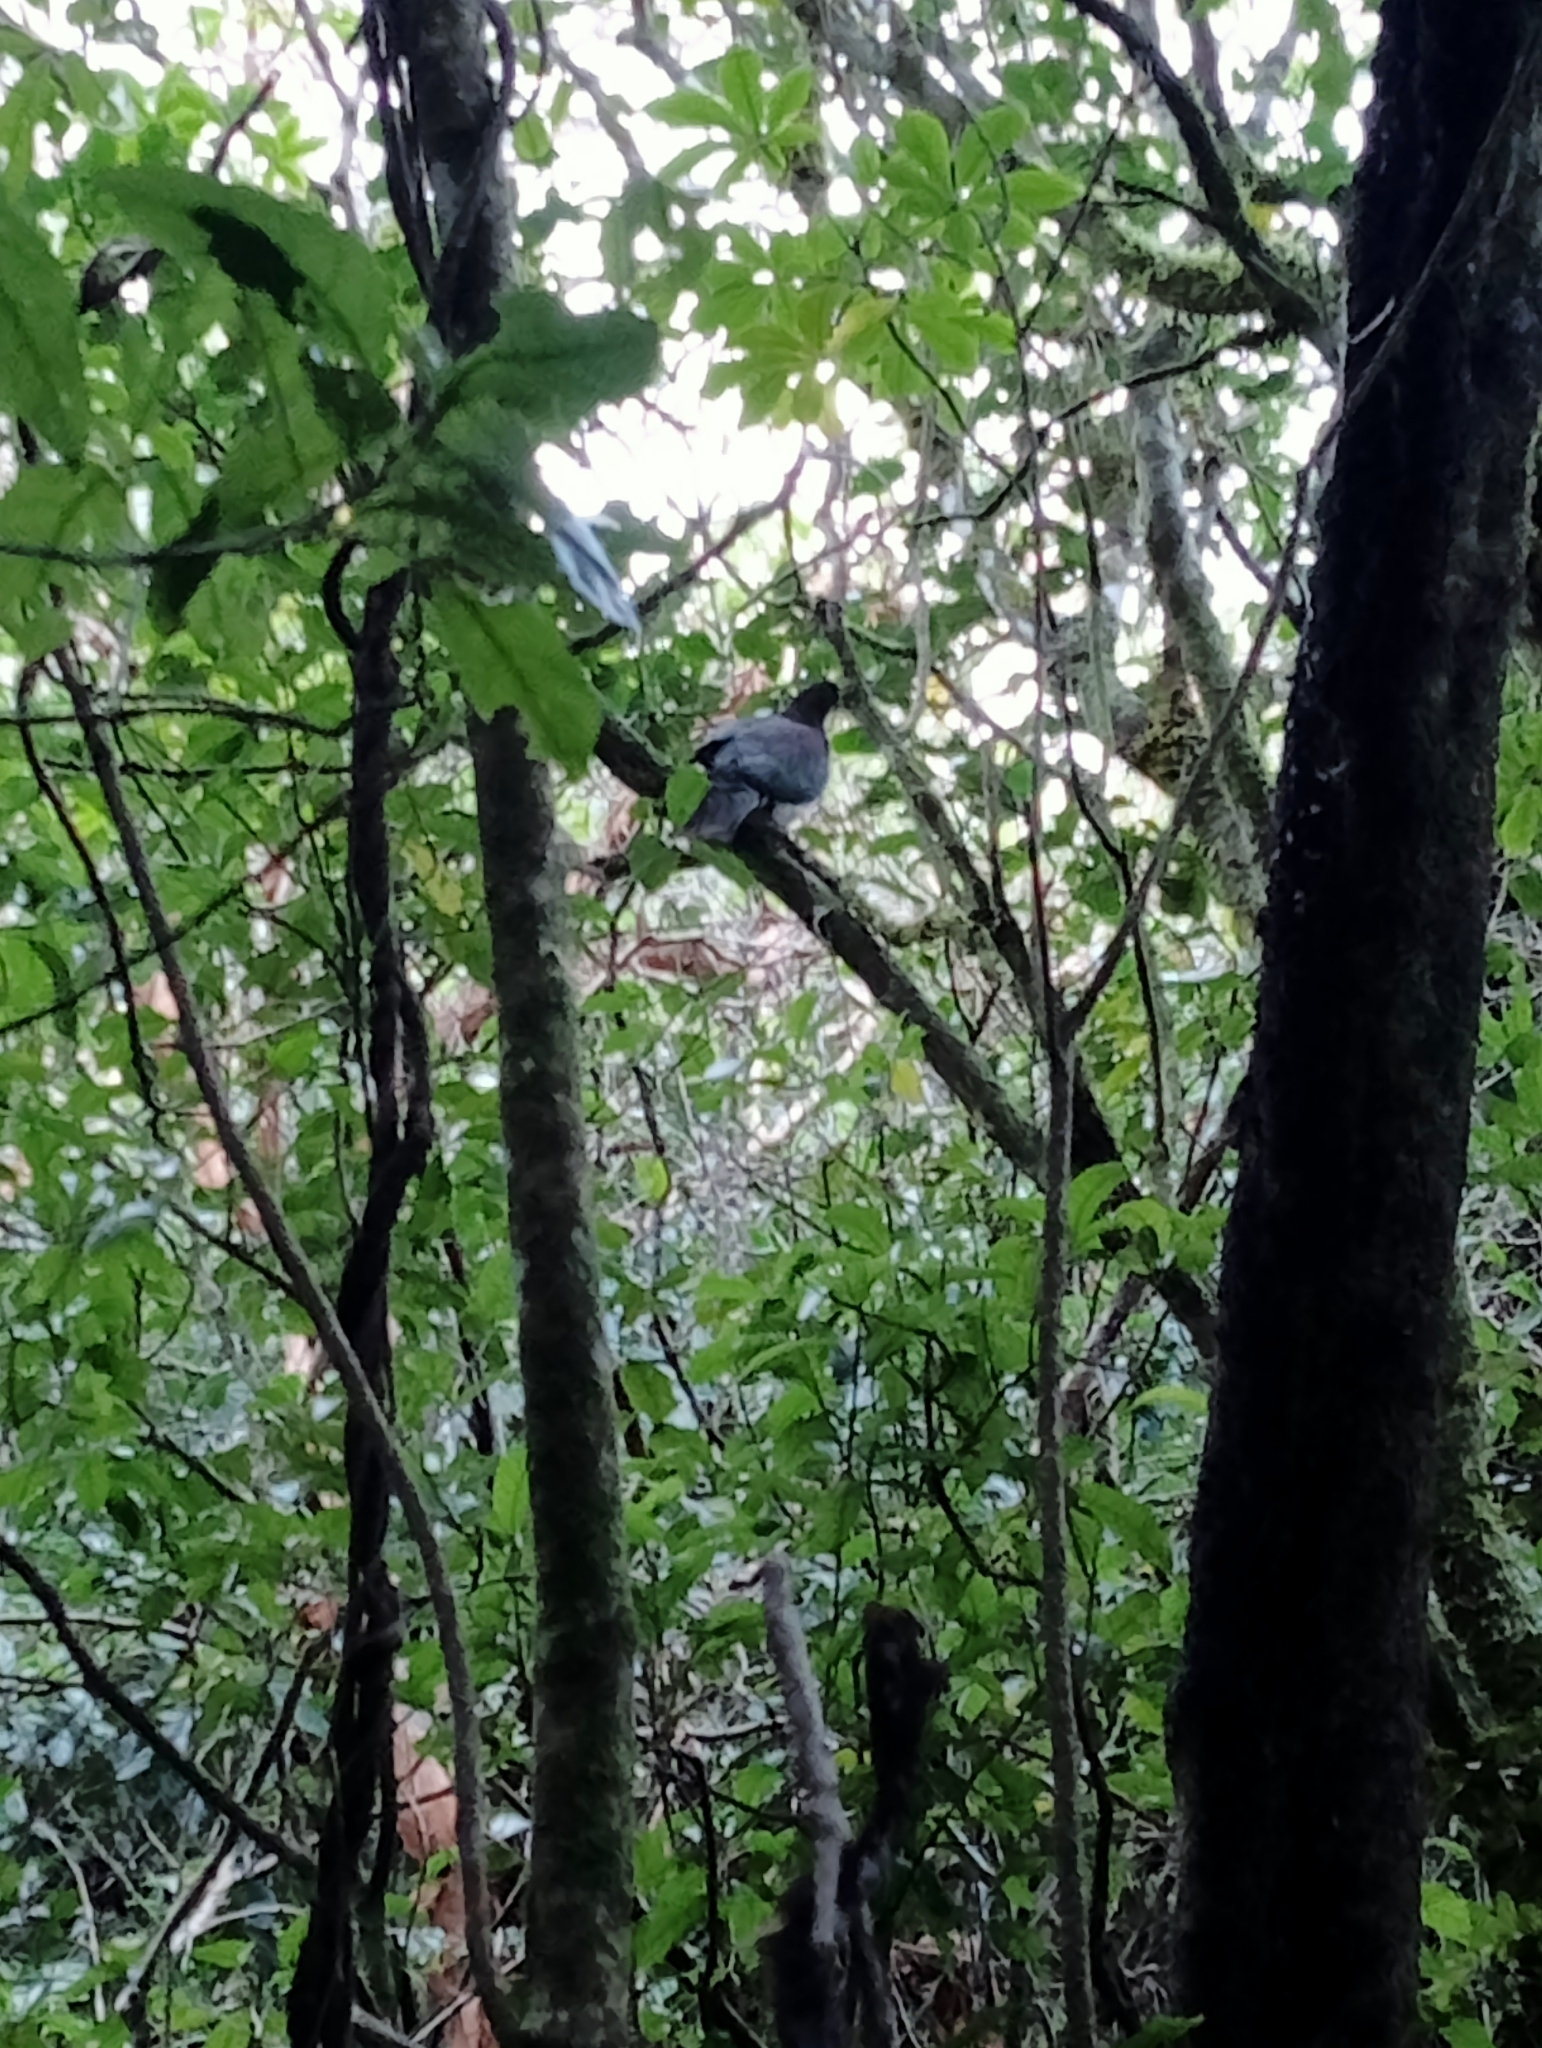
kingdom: Animalia
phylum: Chordata
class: Aves
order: Columbiformes
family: Columbidae
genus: Hemiphaga
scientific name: Hemiphaga novaeseelandiae
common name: New zealand pigeon
